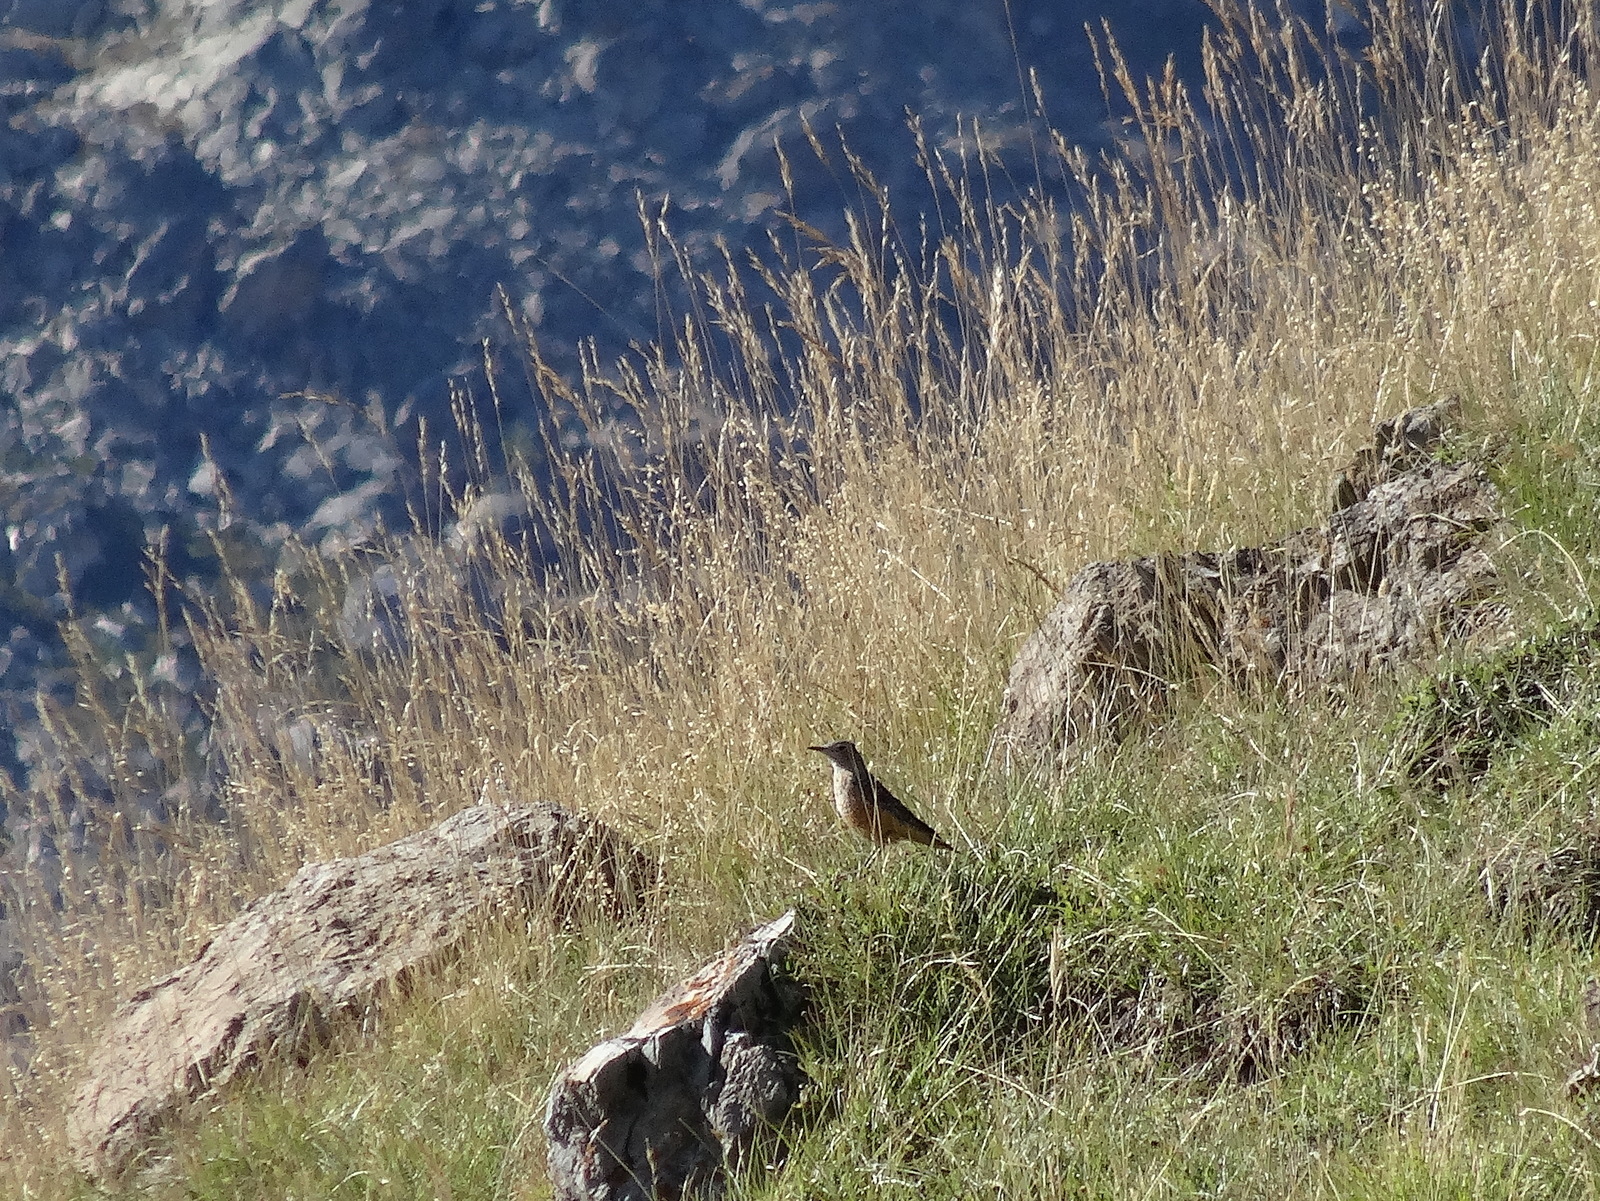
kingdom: Animalia
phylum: Chordata
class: Aves
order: Passeriformes
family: Muscicapidae
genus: Monticola
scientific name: Monticola saxatilis
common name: Rufous-tailed rock thrush
